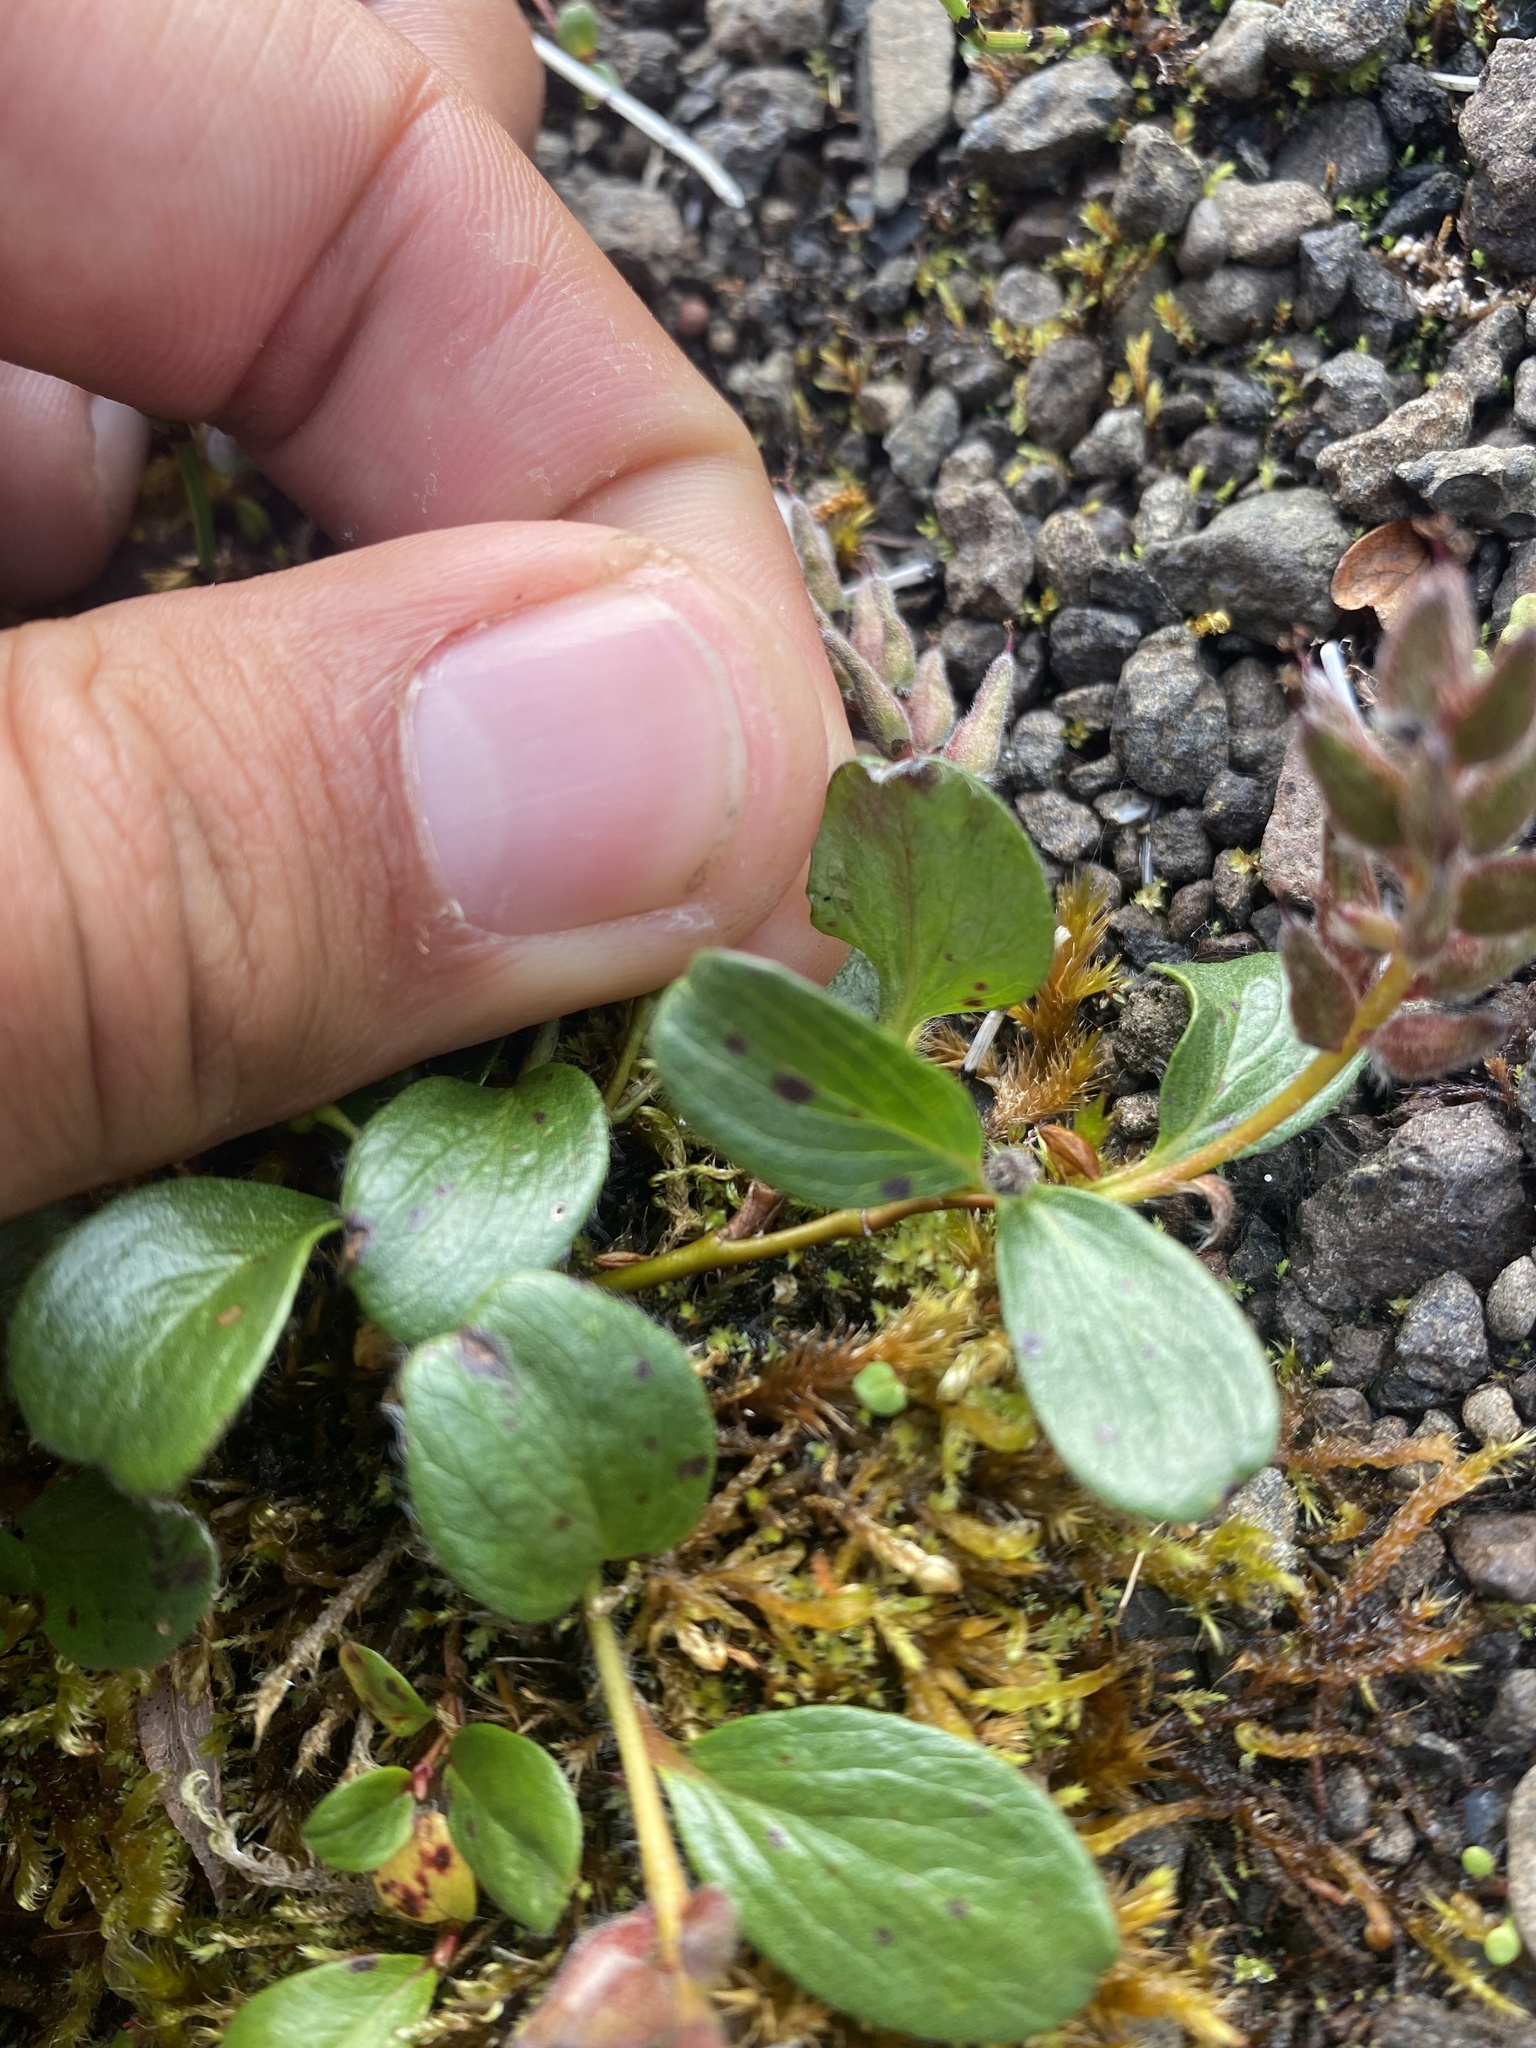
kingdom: Plantae
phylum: Tracheophyta
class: Magnoliopsida
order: Malpighiales
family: Salicaceae
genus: Salix
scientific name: Salix polaris
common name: Polar willow
